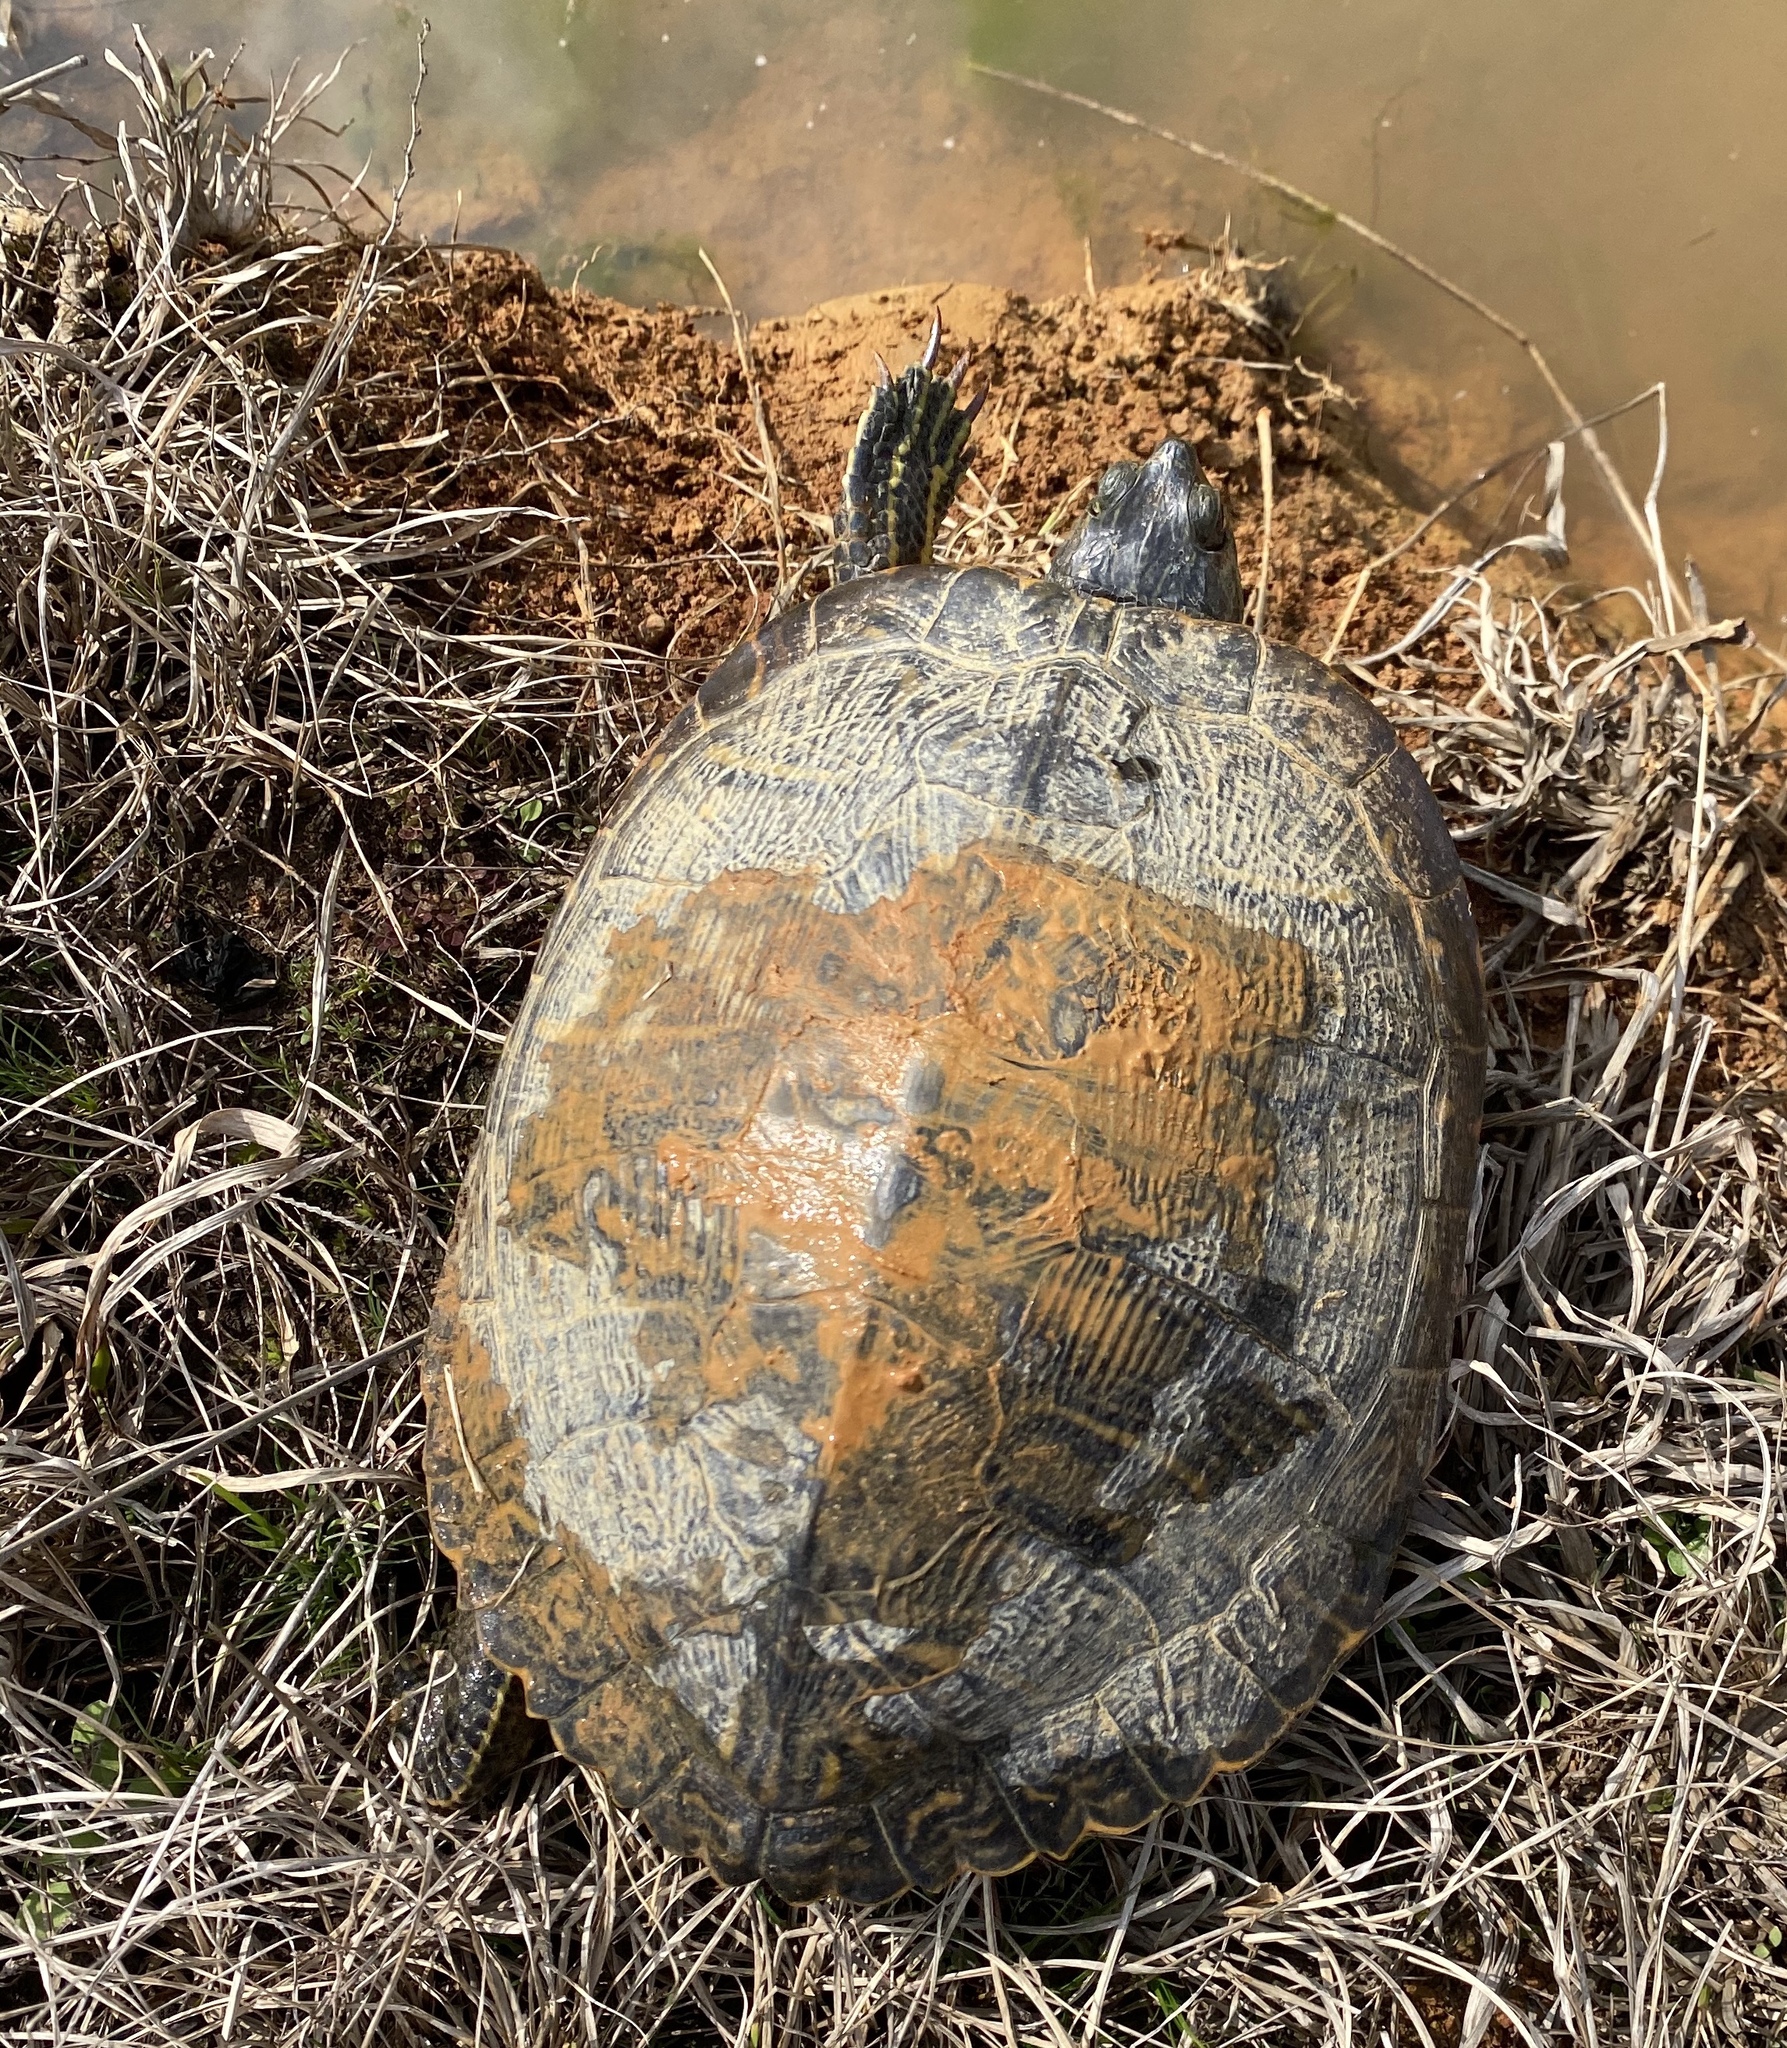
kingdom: Animalia
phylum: Chordata
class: Testudines
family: Emydidae
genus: Trachemys
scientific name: Trachemys scripta
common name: Slider
